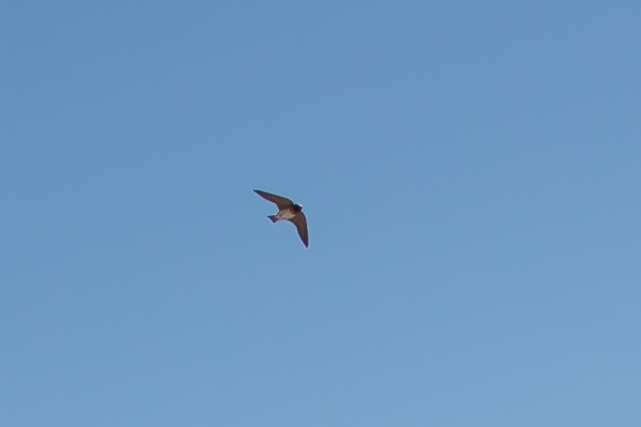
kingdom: Animalia
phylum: Chordata
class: Aves
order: Passeriformes
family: Hirundinidae
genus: Petrochelidon
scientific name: Petrochelidon pyrrhonota
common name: American cliff swallow
